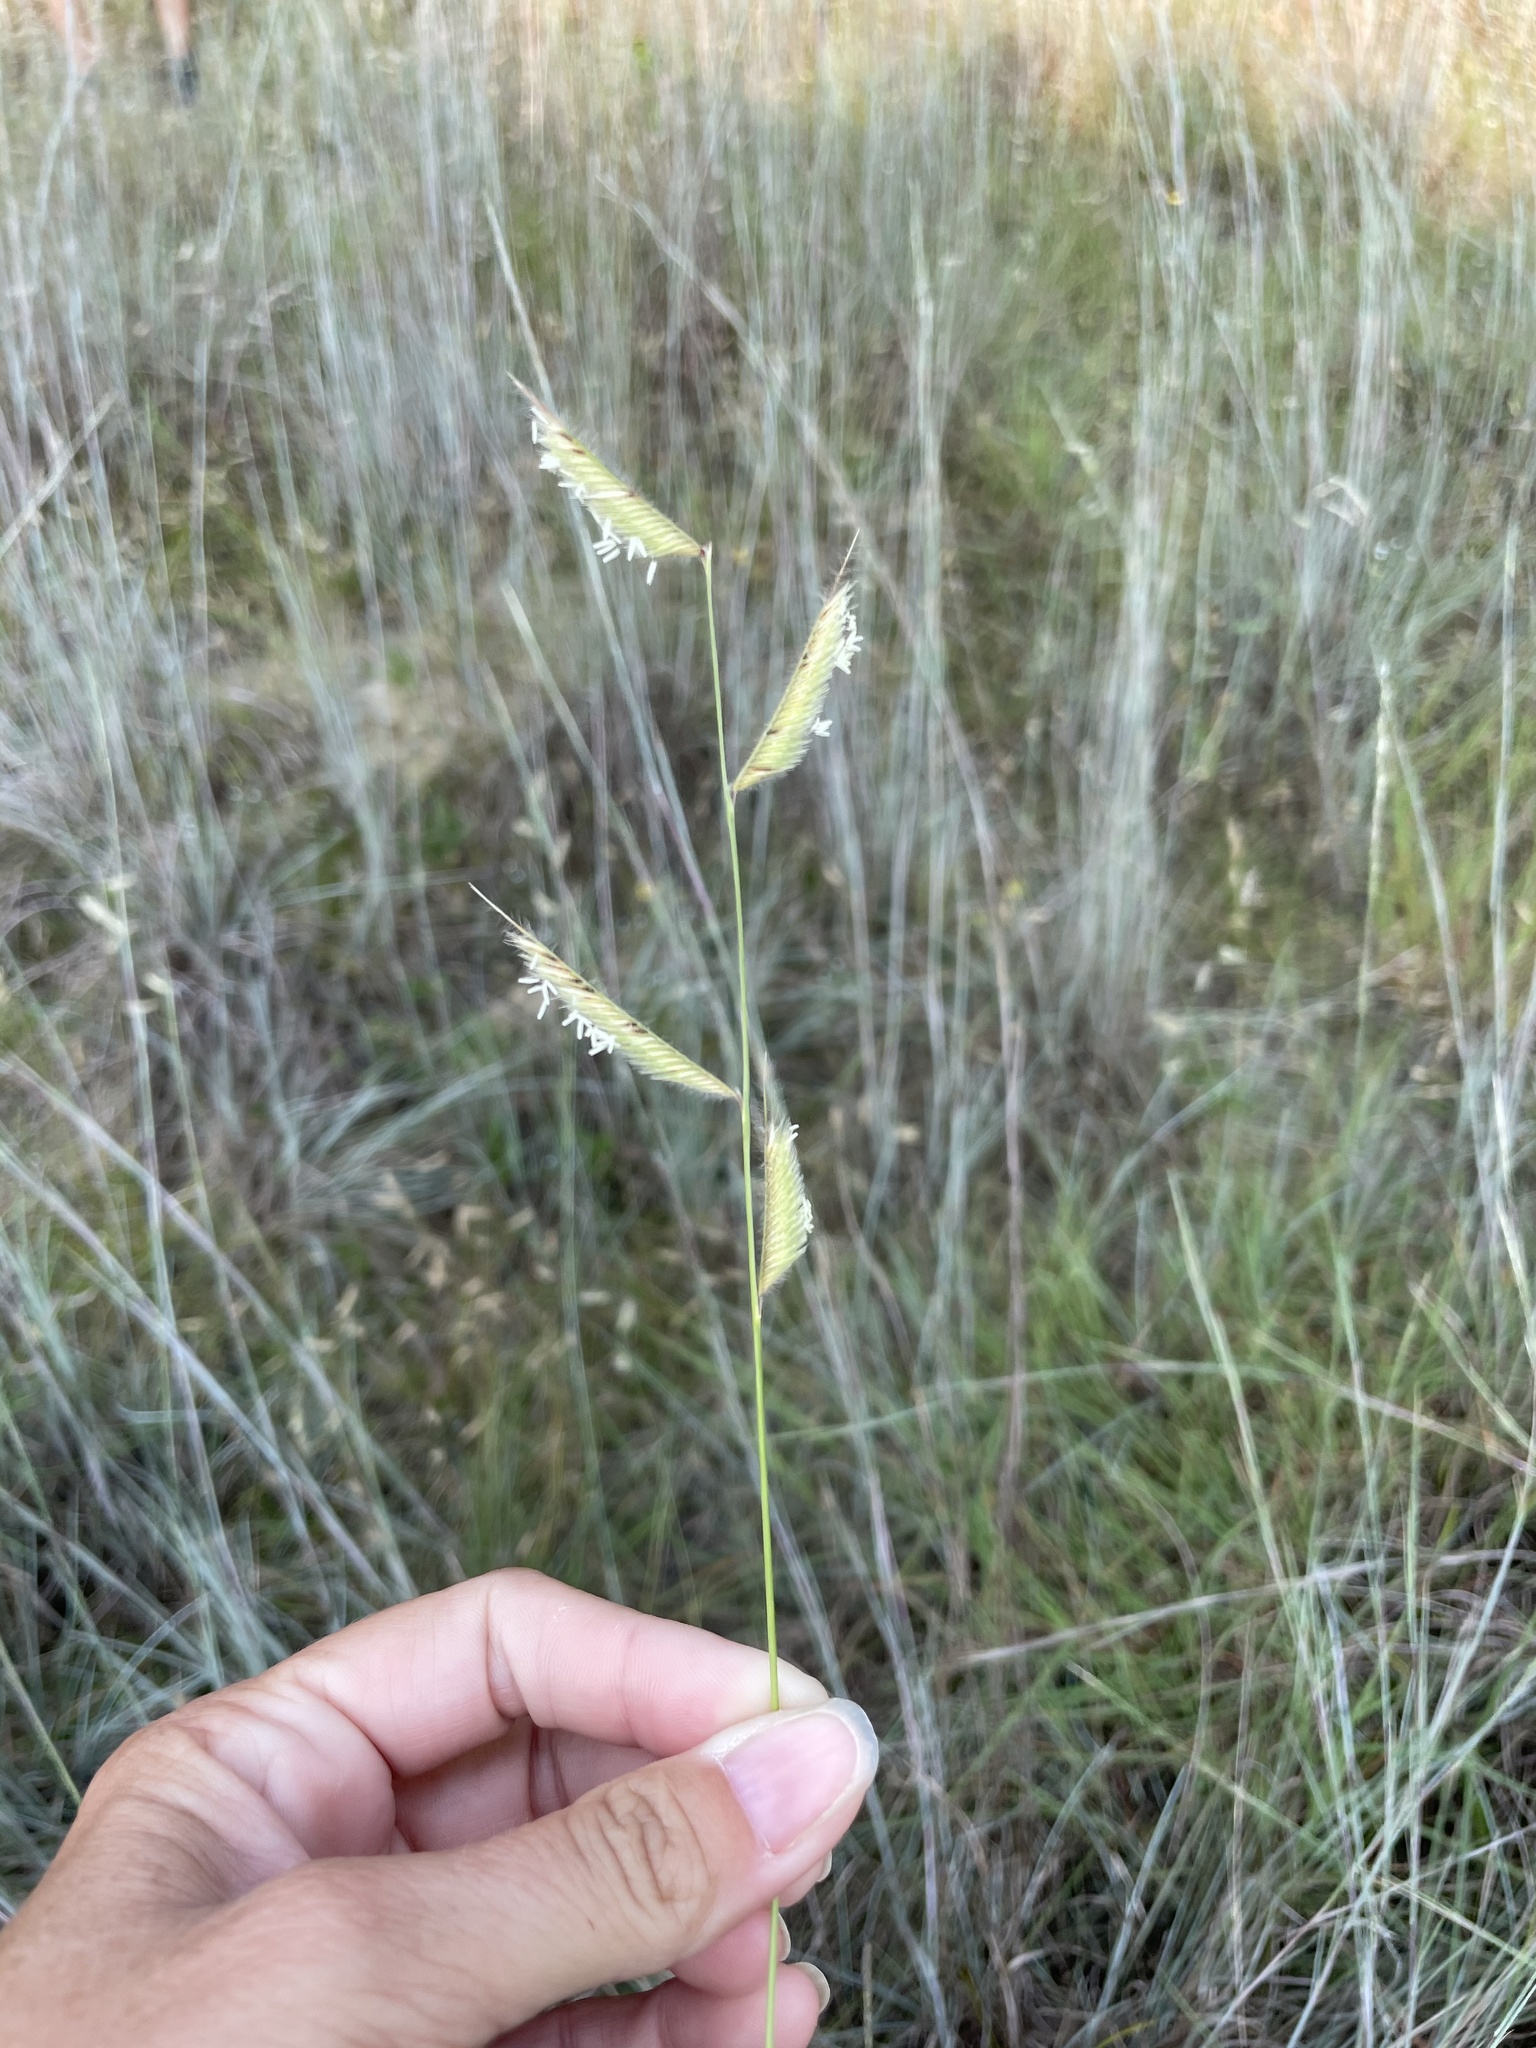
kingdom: Plantae
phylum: Tracheophyta
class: Liliopsida
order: Poales
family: Poaceae
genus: Bouteloua
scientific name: Bouteloua hirsuta
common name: Hairy grama
